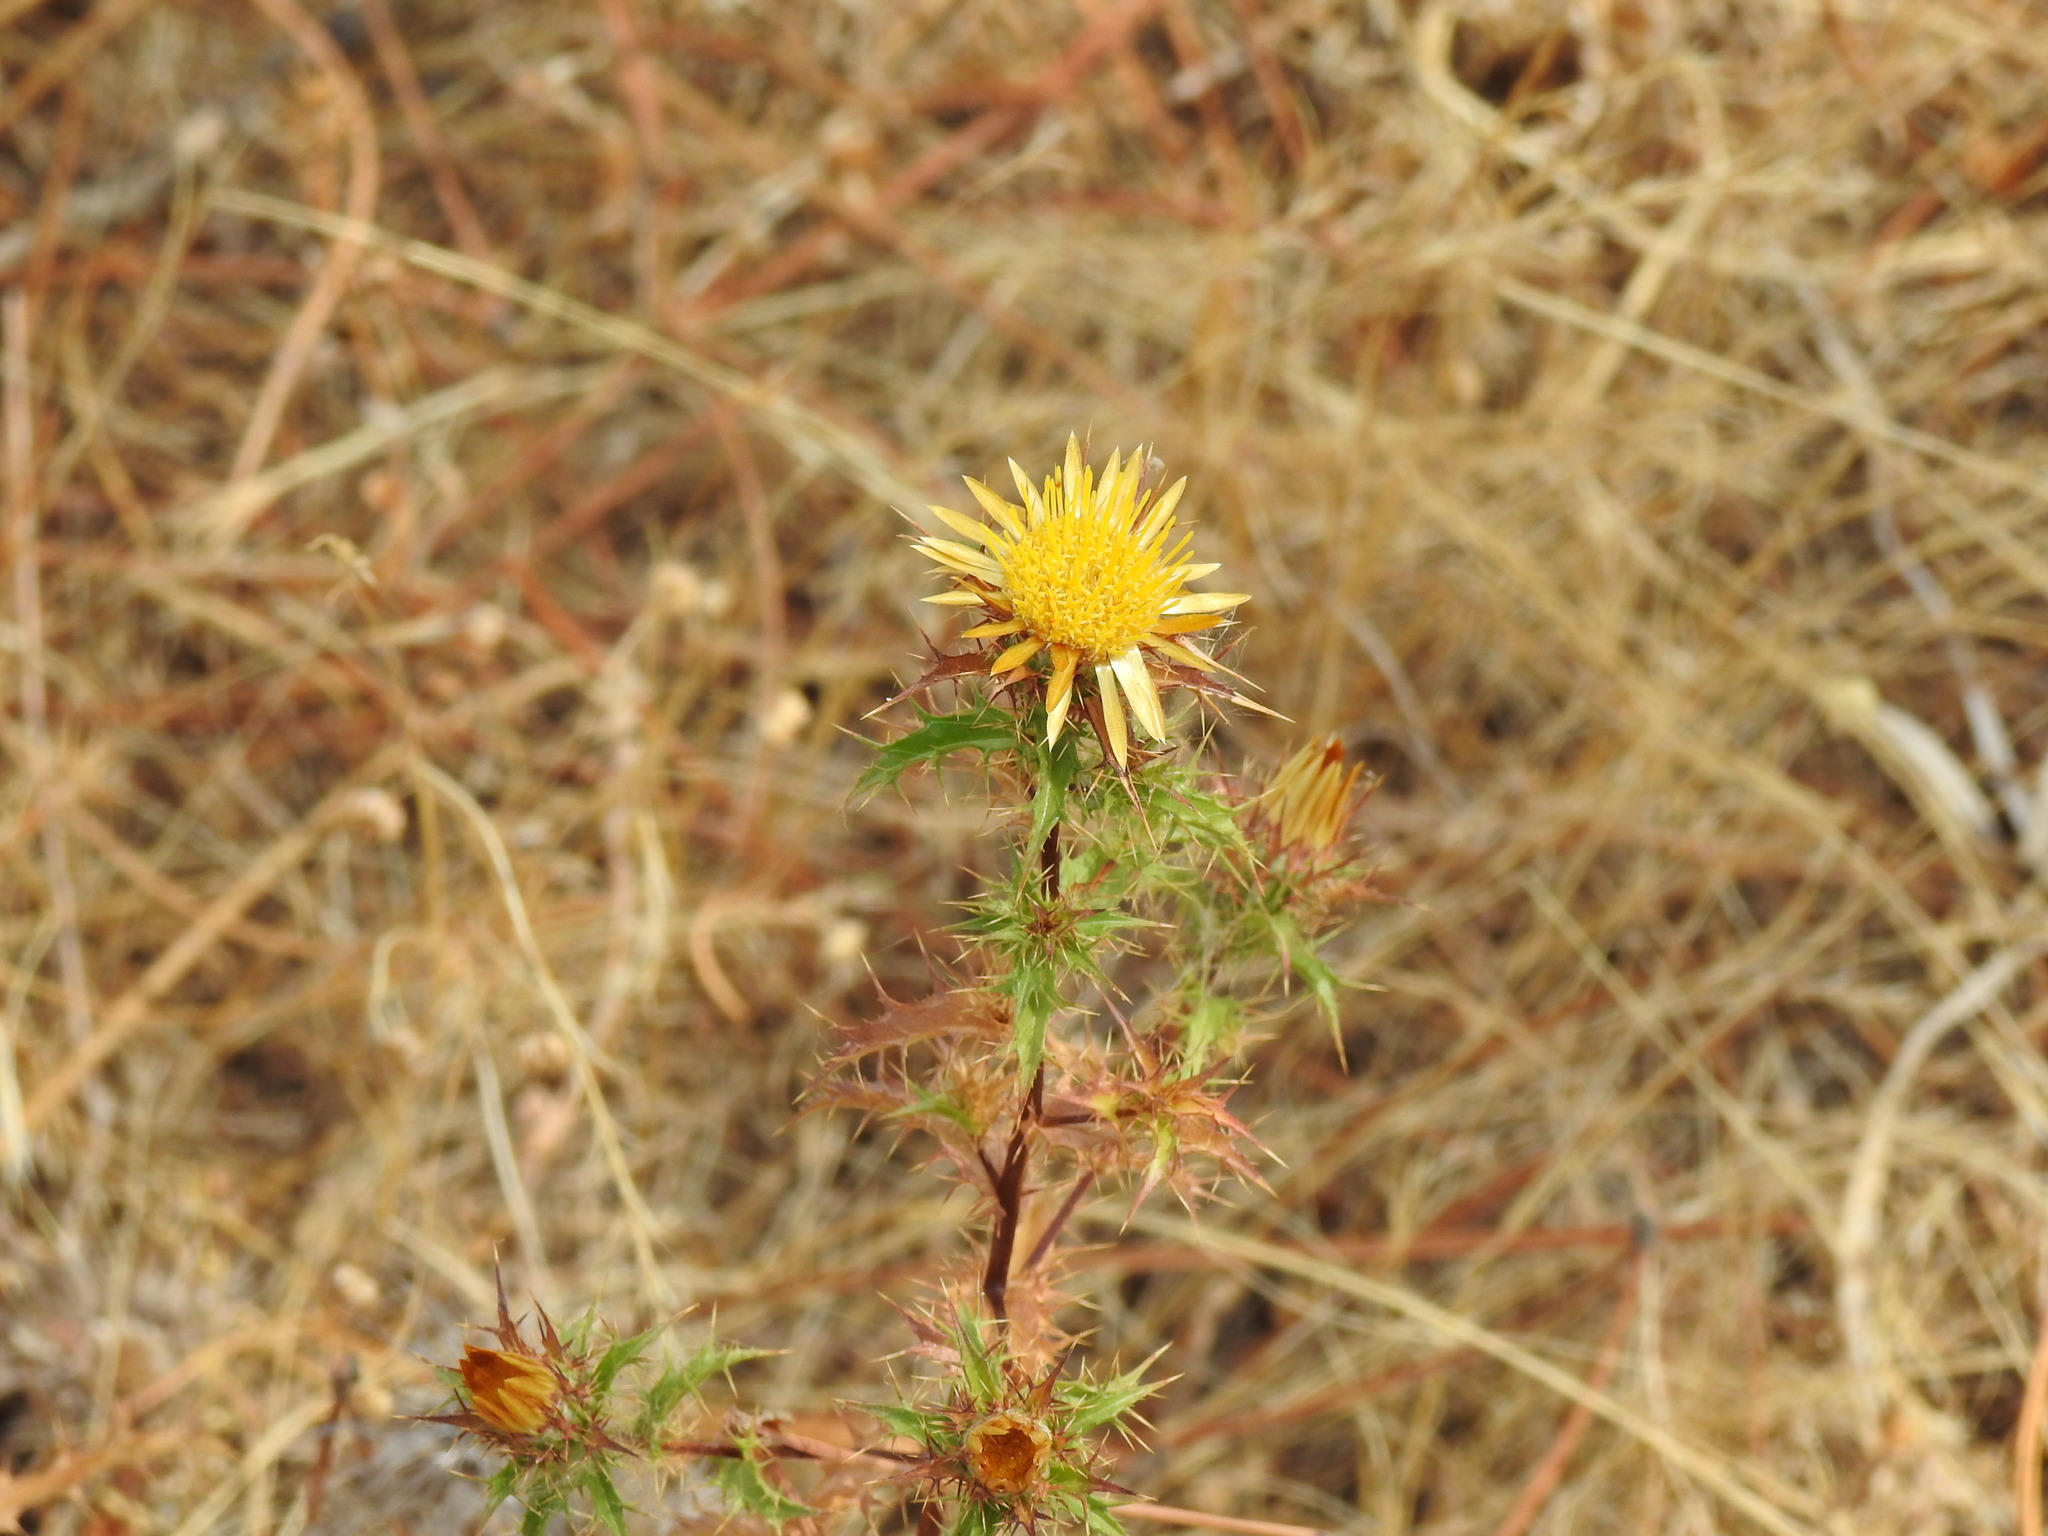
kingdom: Plantae
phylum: Tracheophyta
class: Magnoliopsida
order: Asterales
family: Asteraceae
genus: Carlina
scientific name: Carlina hispanica
